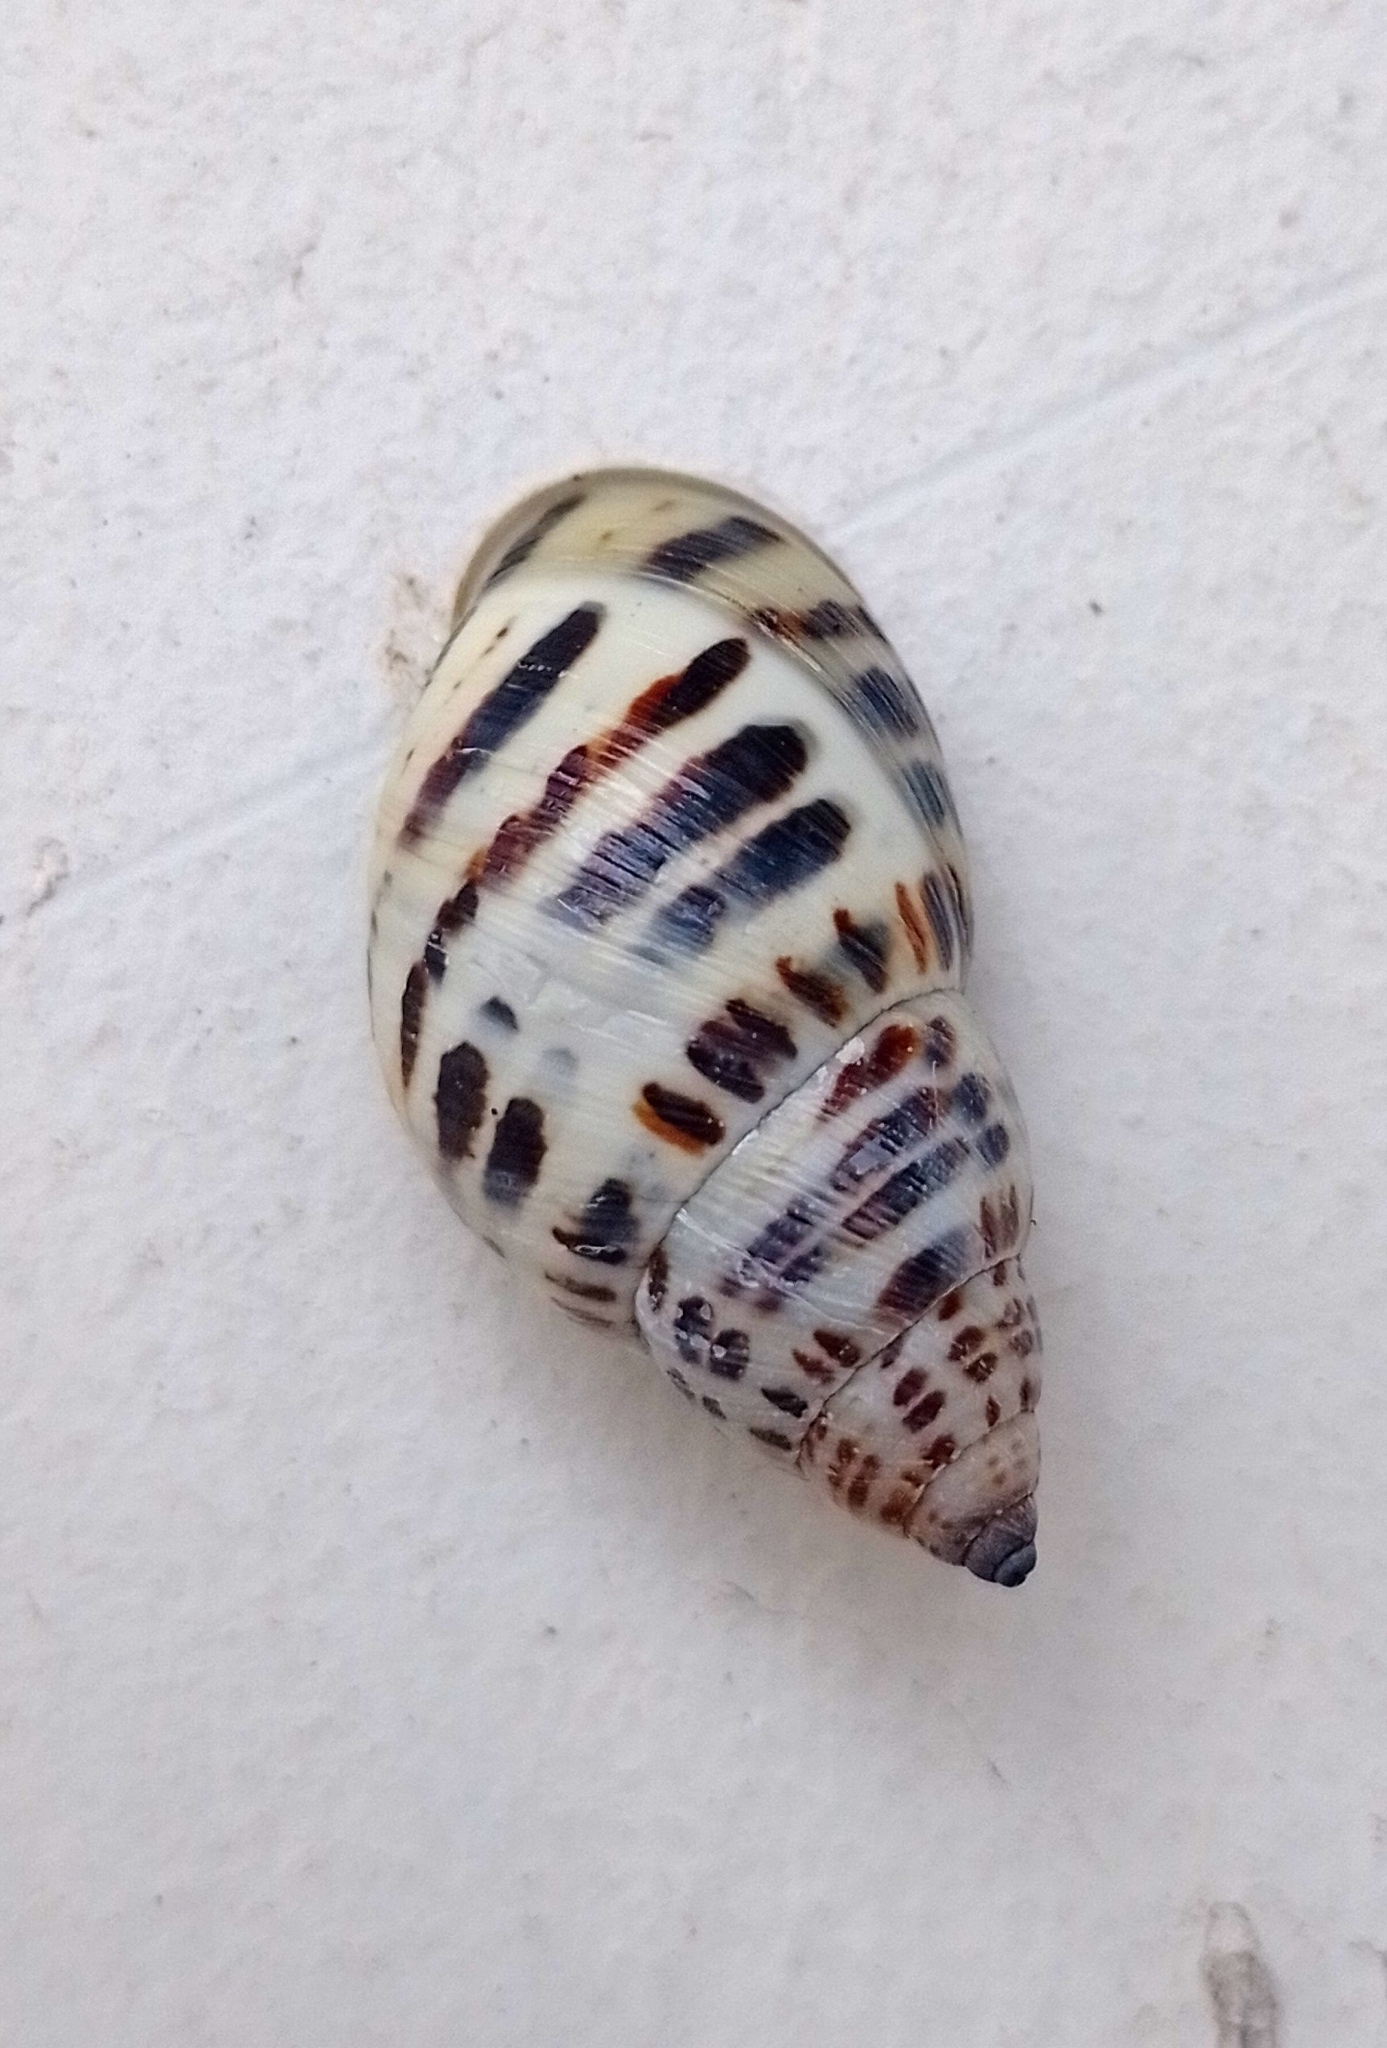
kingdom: Animalia
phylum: Mollusca
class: Gastropoda
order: Stylommatophora
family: Bulimulidae
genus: Drymaeus
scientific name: Drymaeus poecilus
